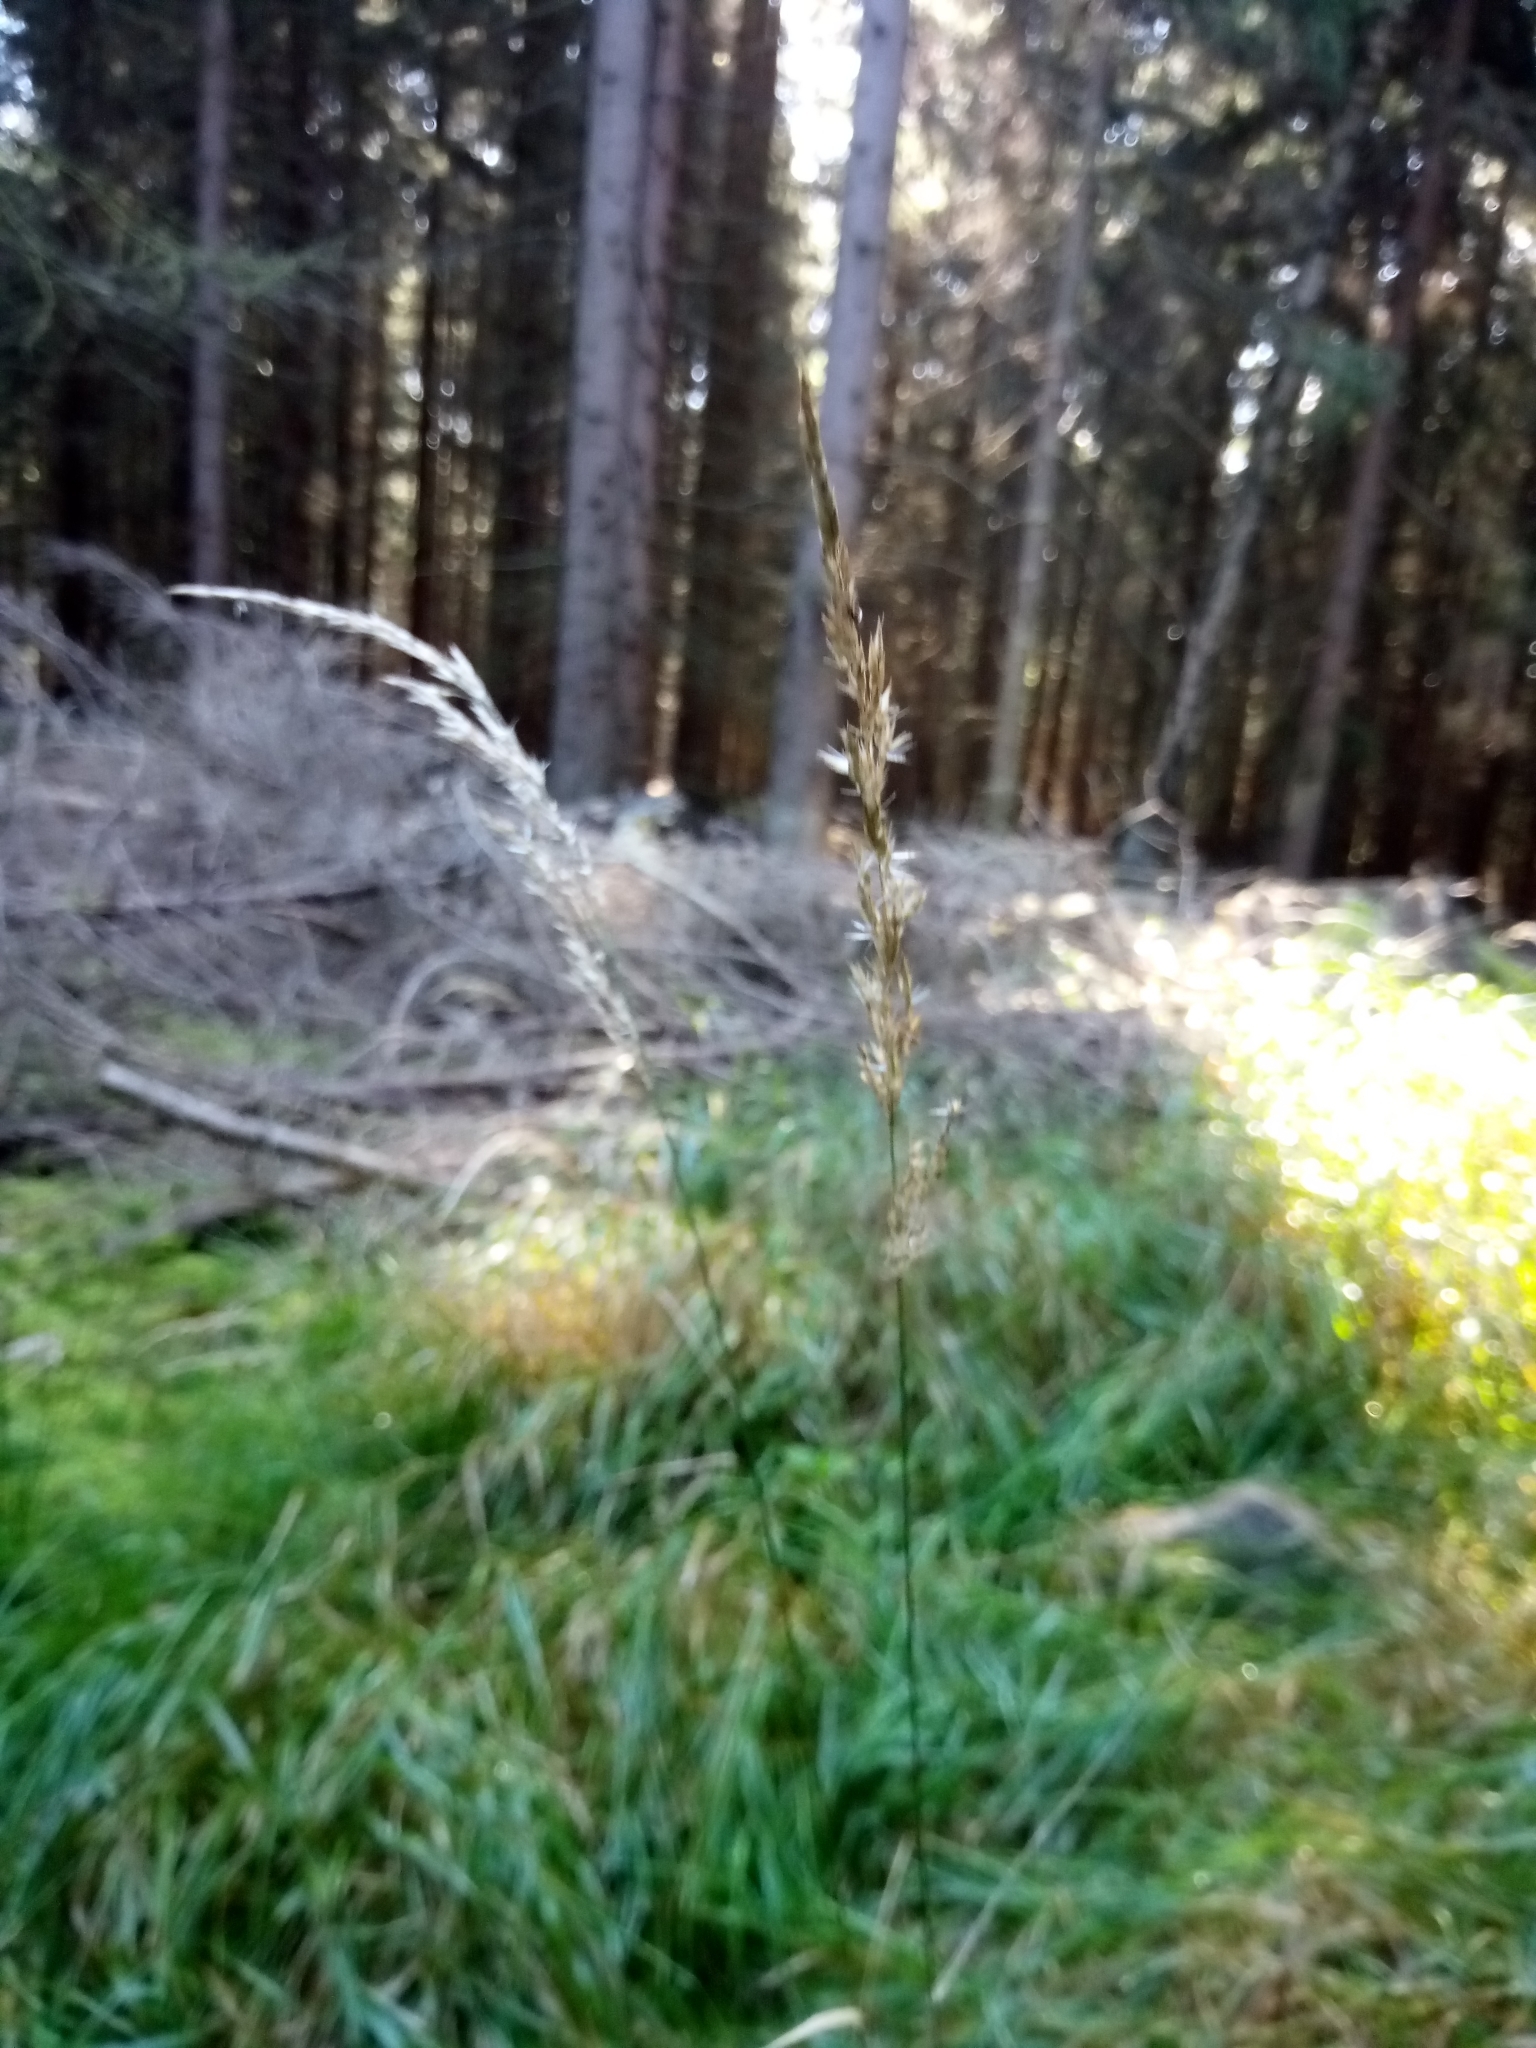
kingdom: Plantae
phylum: Tracheophyta
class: Liliopsida
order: Poales
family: Poaceae
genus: Calamagrostis
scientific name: Calamagrostis villosa
